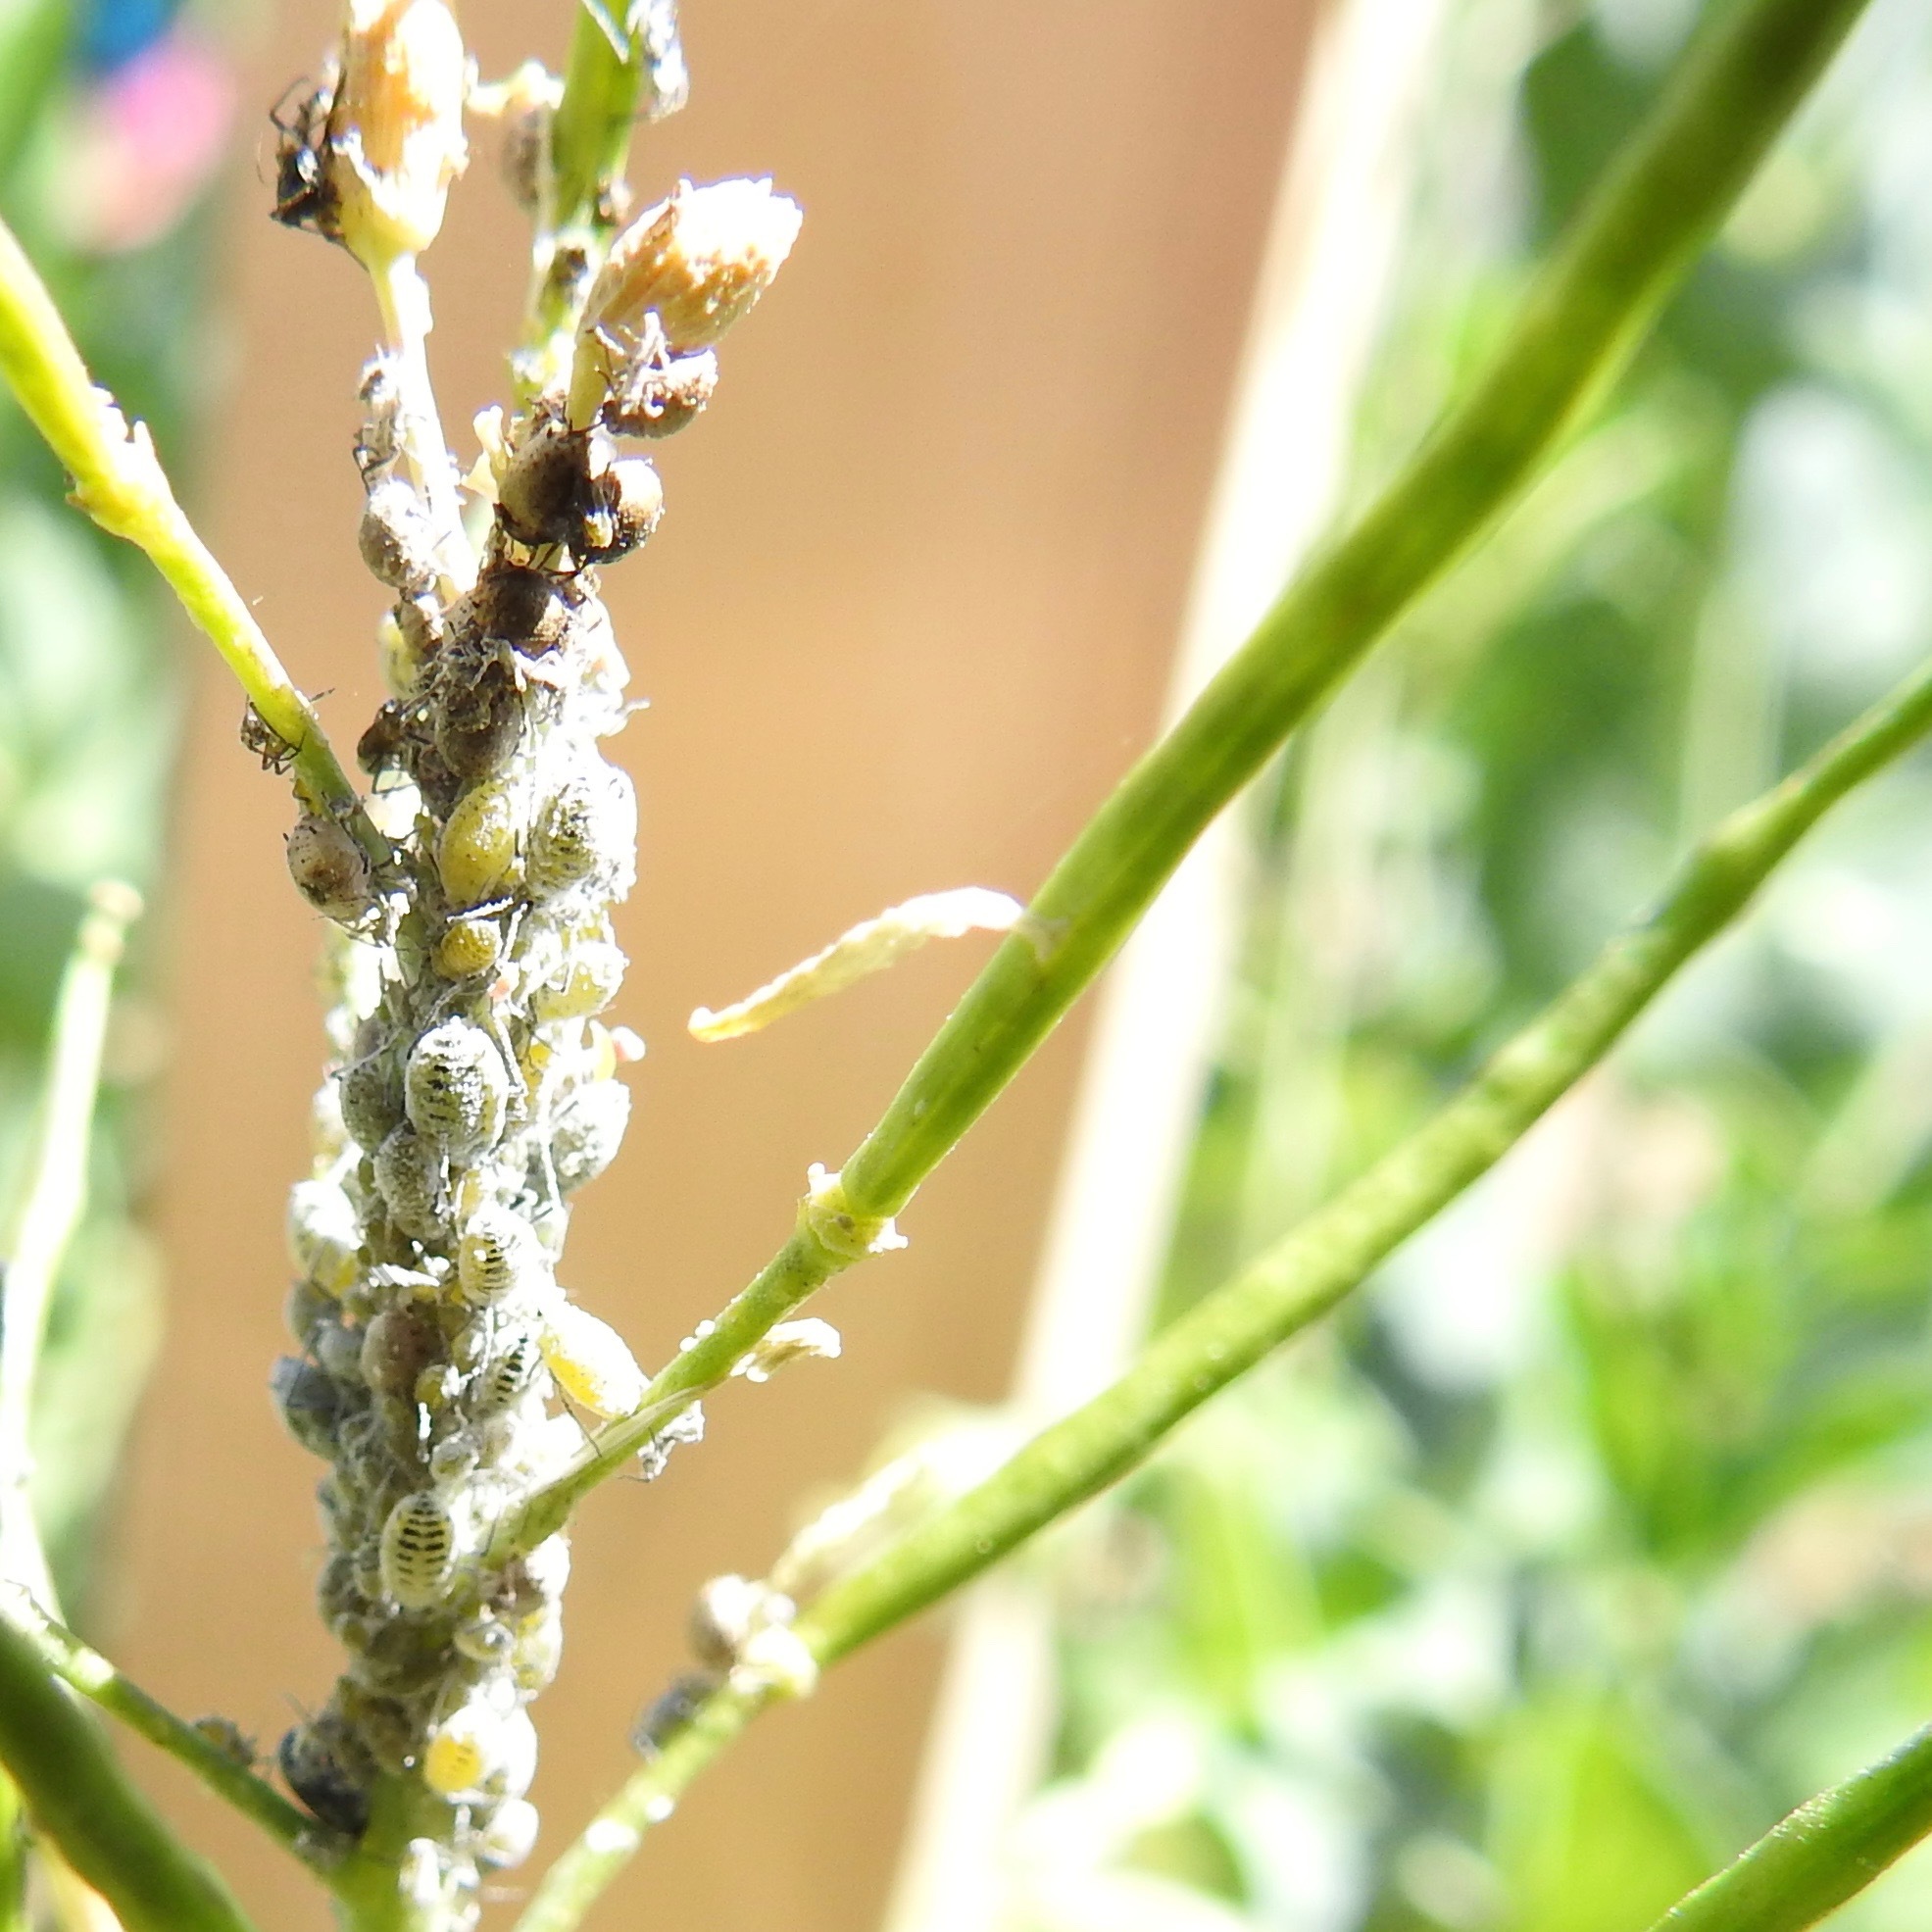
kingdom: Animalia
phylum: Arthropoda
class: Insecta
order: Hemiptera
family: Aphididae
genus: Brevicoryne
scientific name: Brevicoryne brassicae
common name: Cabbage aphid
